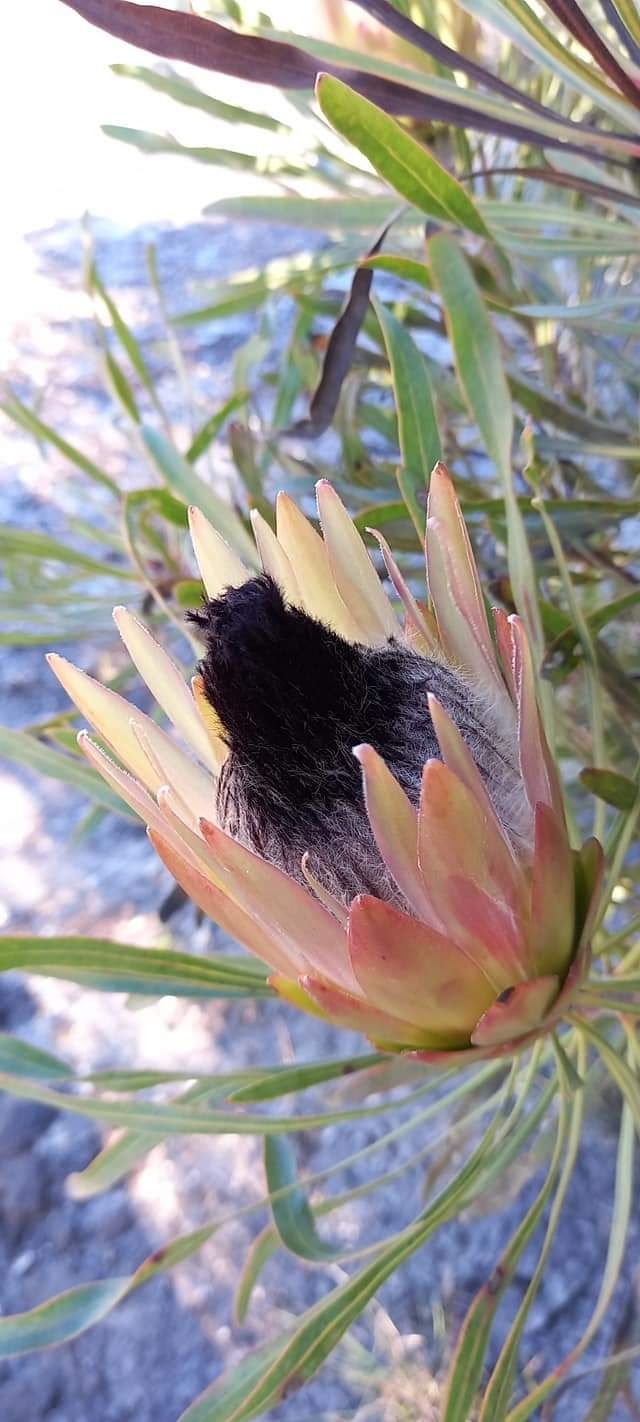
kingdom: Plantae
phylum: Tracheophyta
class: Magnoliopsida
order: Proteales
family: Proteaceae
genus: Protea
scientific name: Protea longifolia
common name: Long-leaf sugarbush
